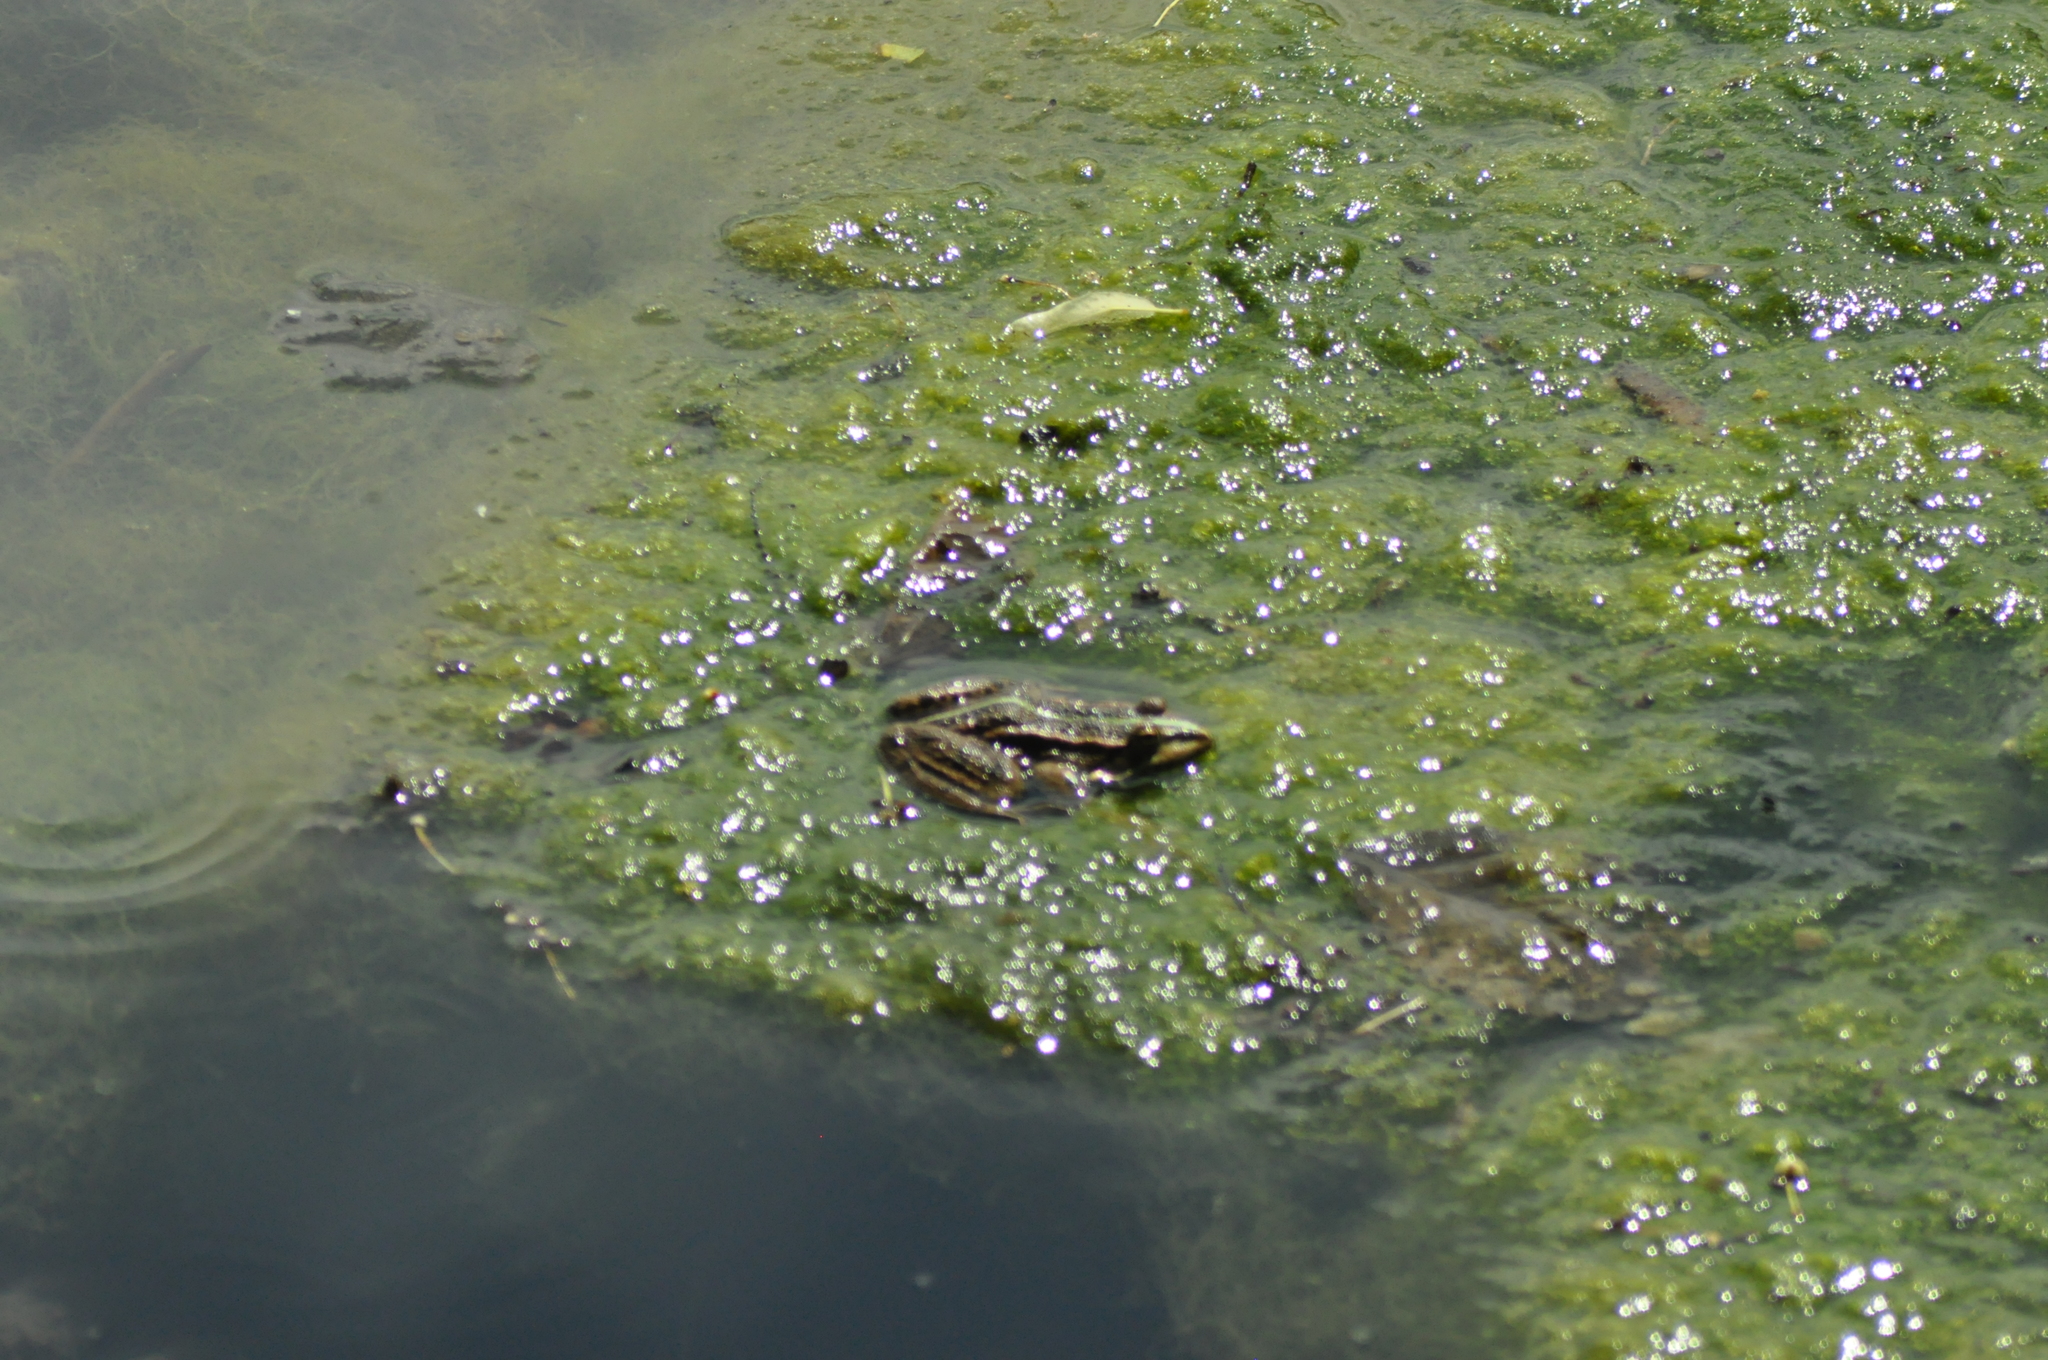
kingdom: Animalia
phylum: Chordata
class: Amphibia
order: Anura
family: Ranidae
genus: Pelophylax
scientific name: Pelophylax
